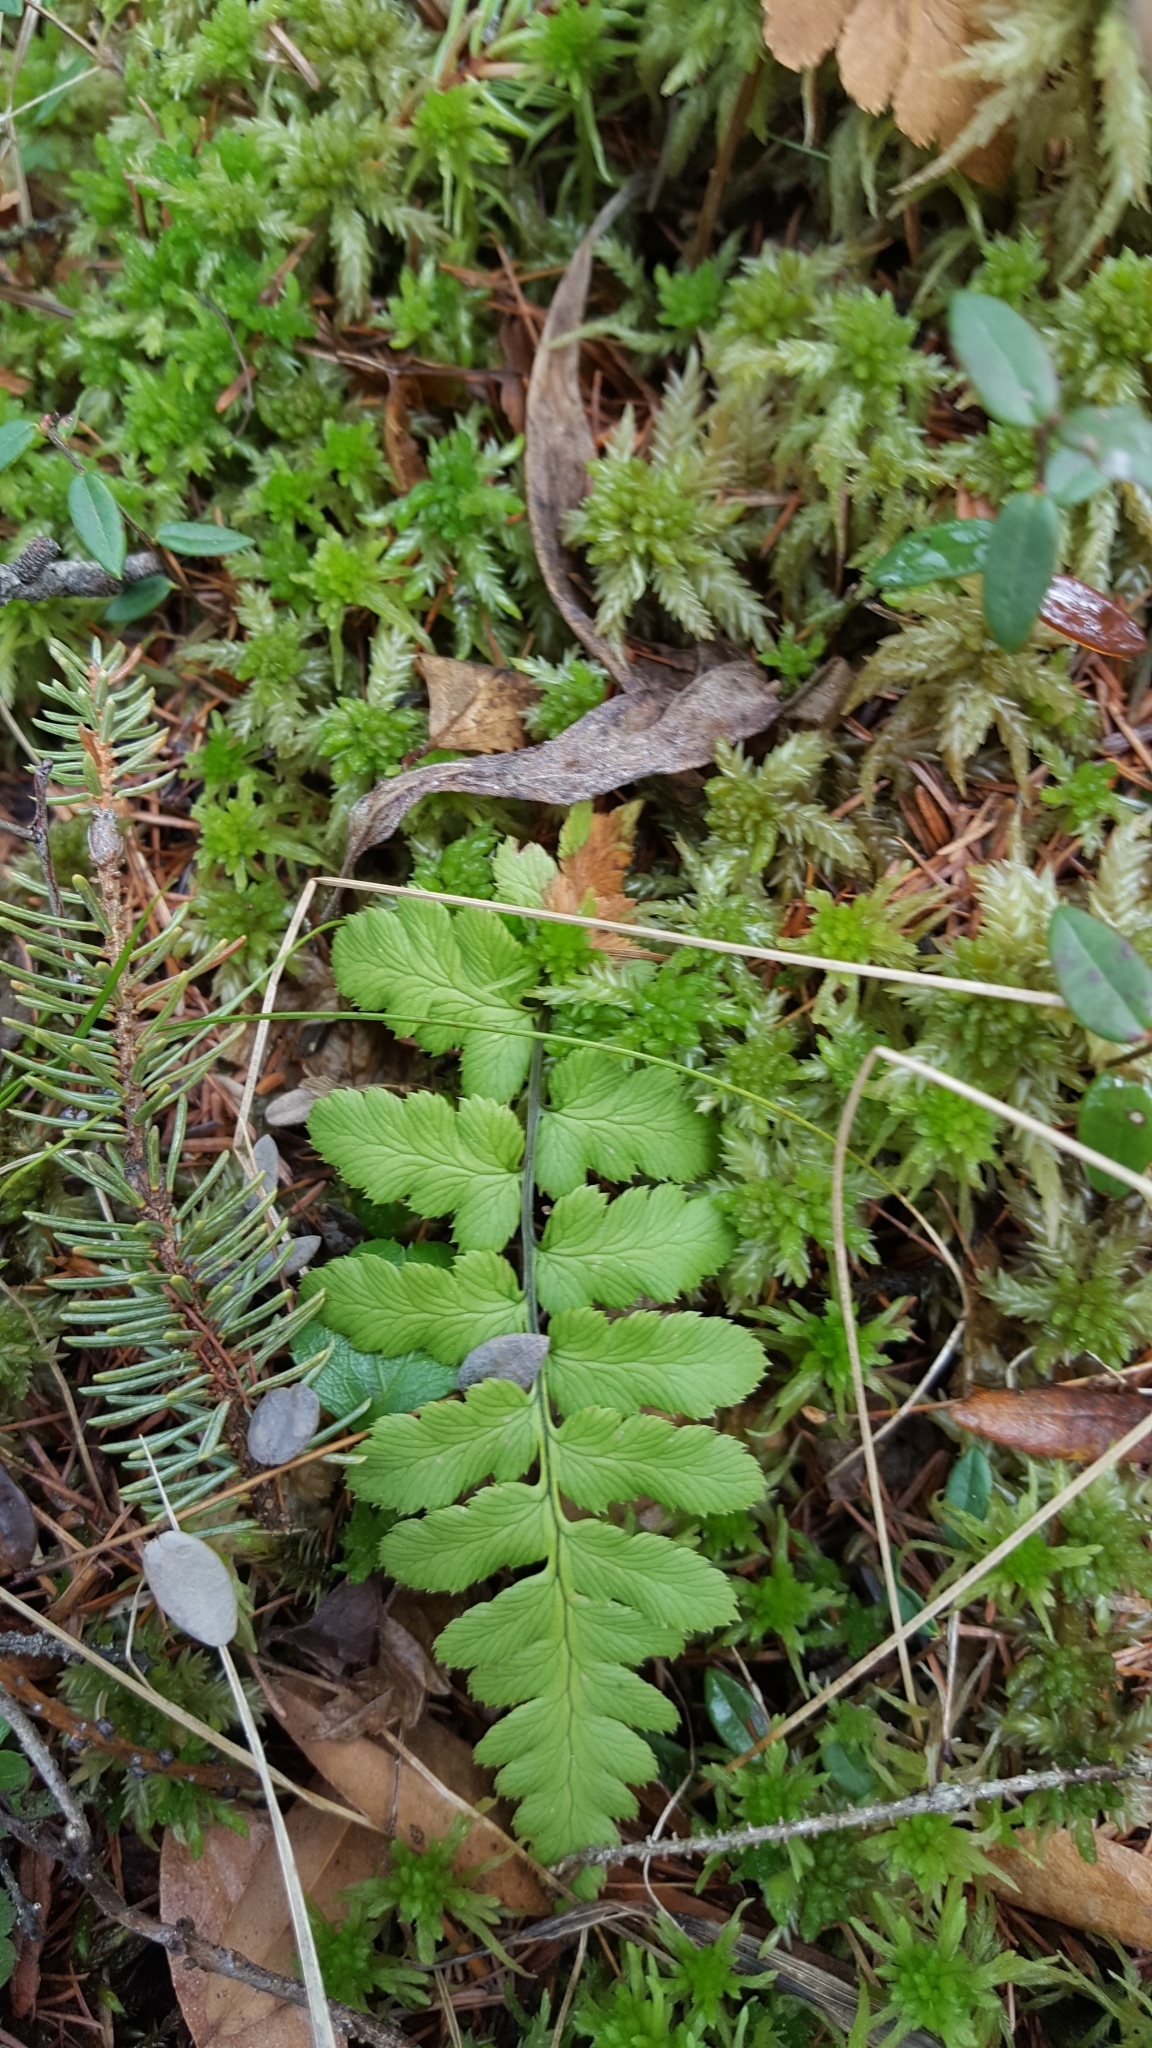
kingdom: Plantae
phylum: Tracheophyta
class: Polypodiopsida
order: Polypodiales
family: Dryopteridaceae
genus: Dryopteris
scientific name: Dryopteris cristata
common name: Crested wood fern
